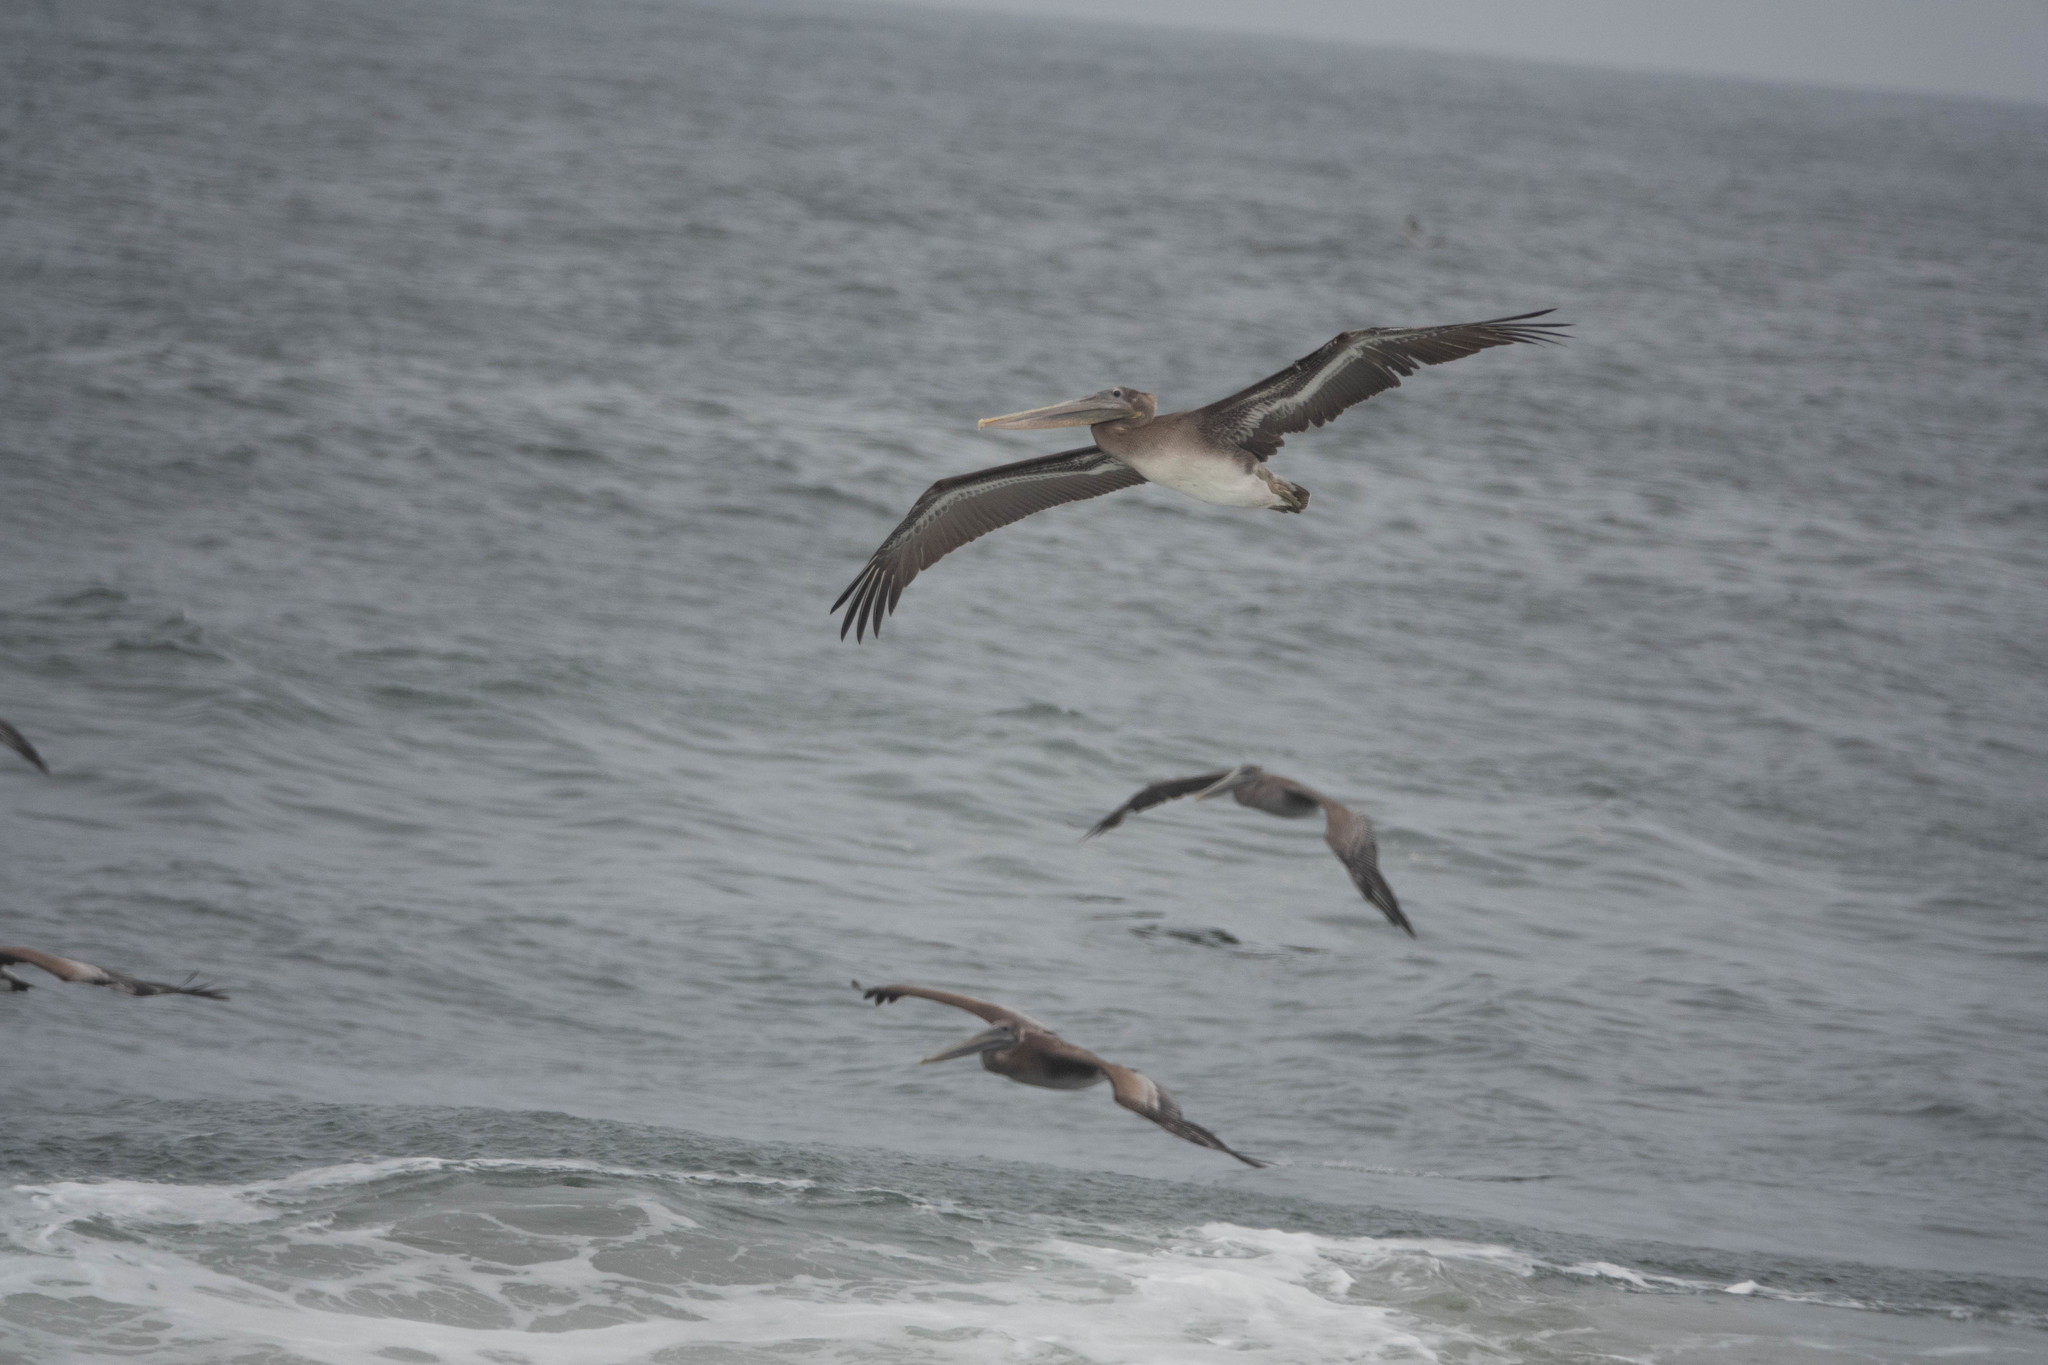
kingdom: Animalia
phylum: Chordata
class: Aves
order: Pelecaniformes
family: Pelecanidae
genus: Pelecanus
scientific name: Pelecanus occidentalis
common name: Brown pelican
